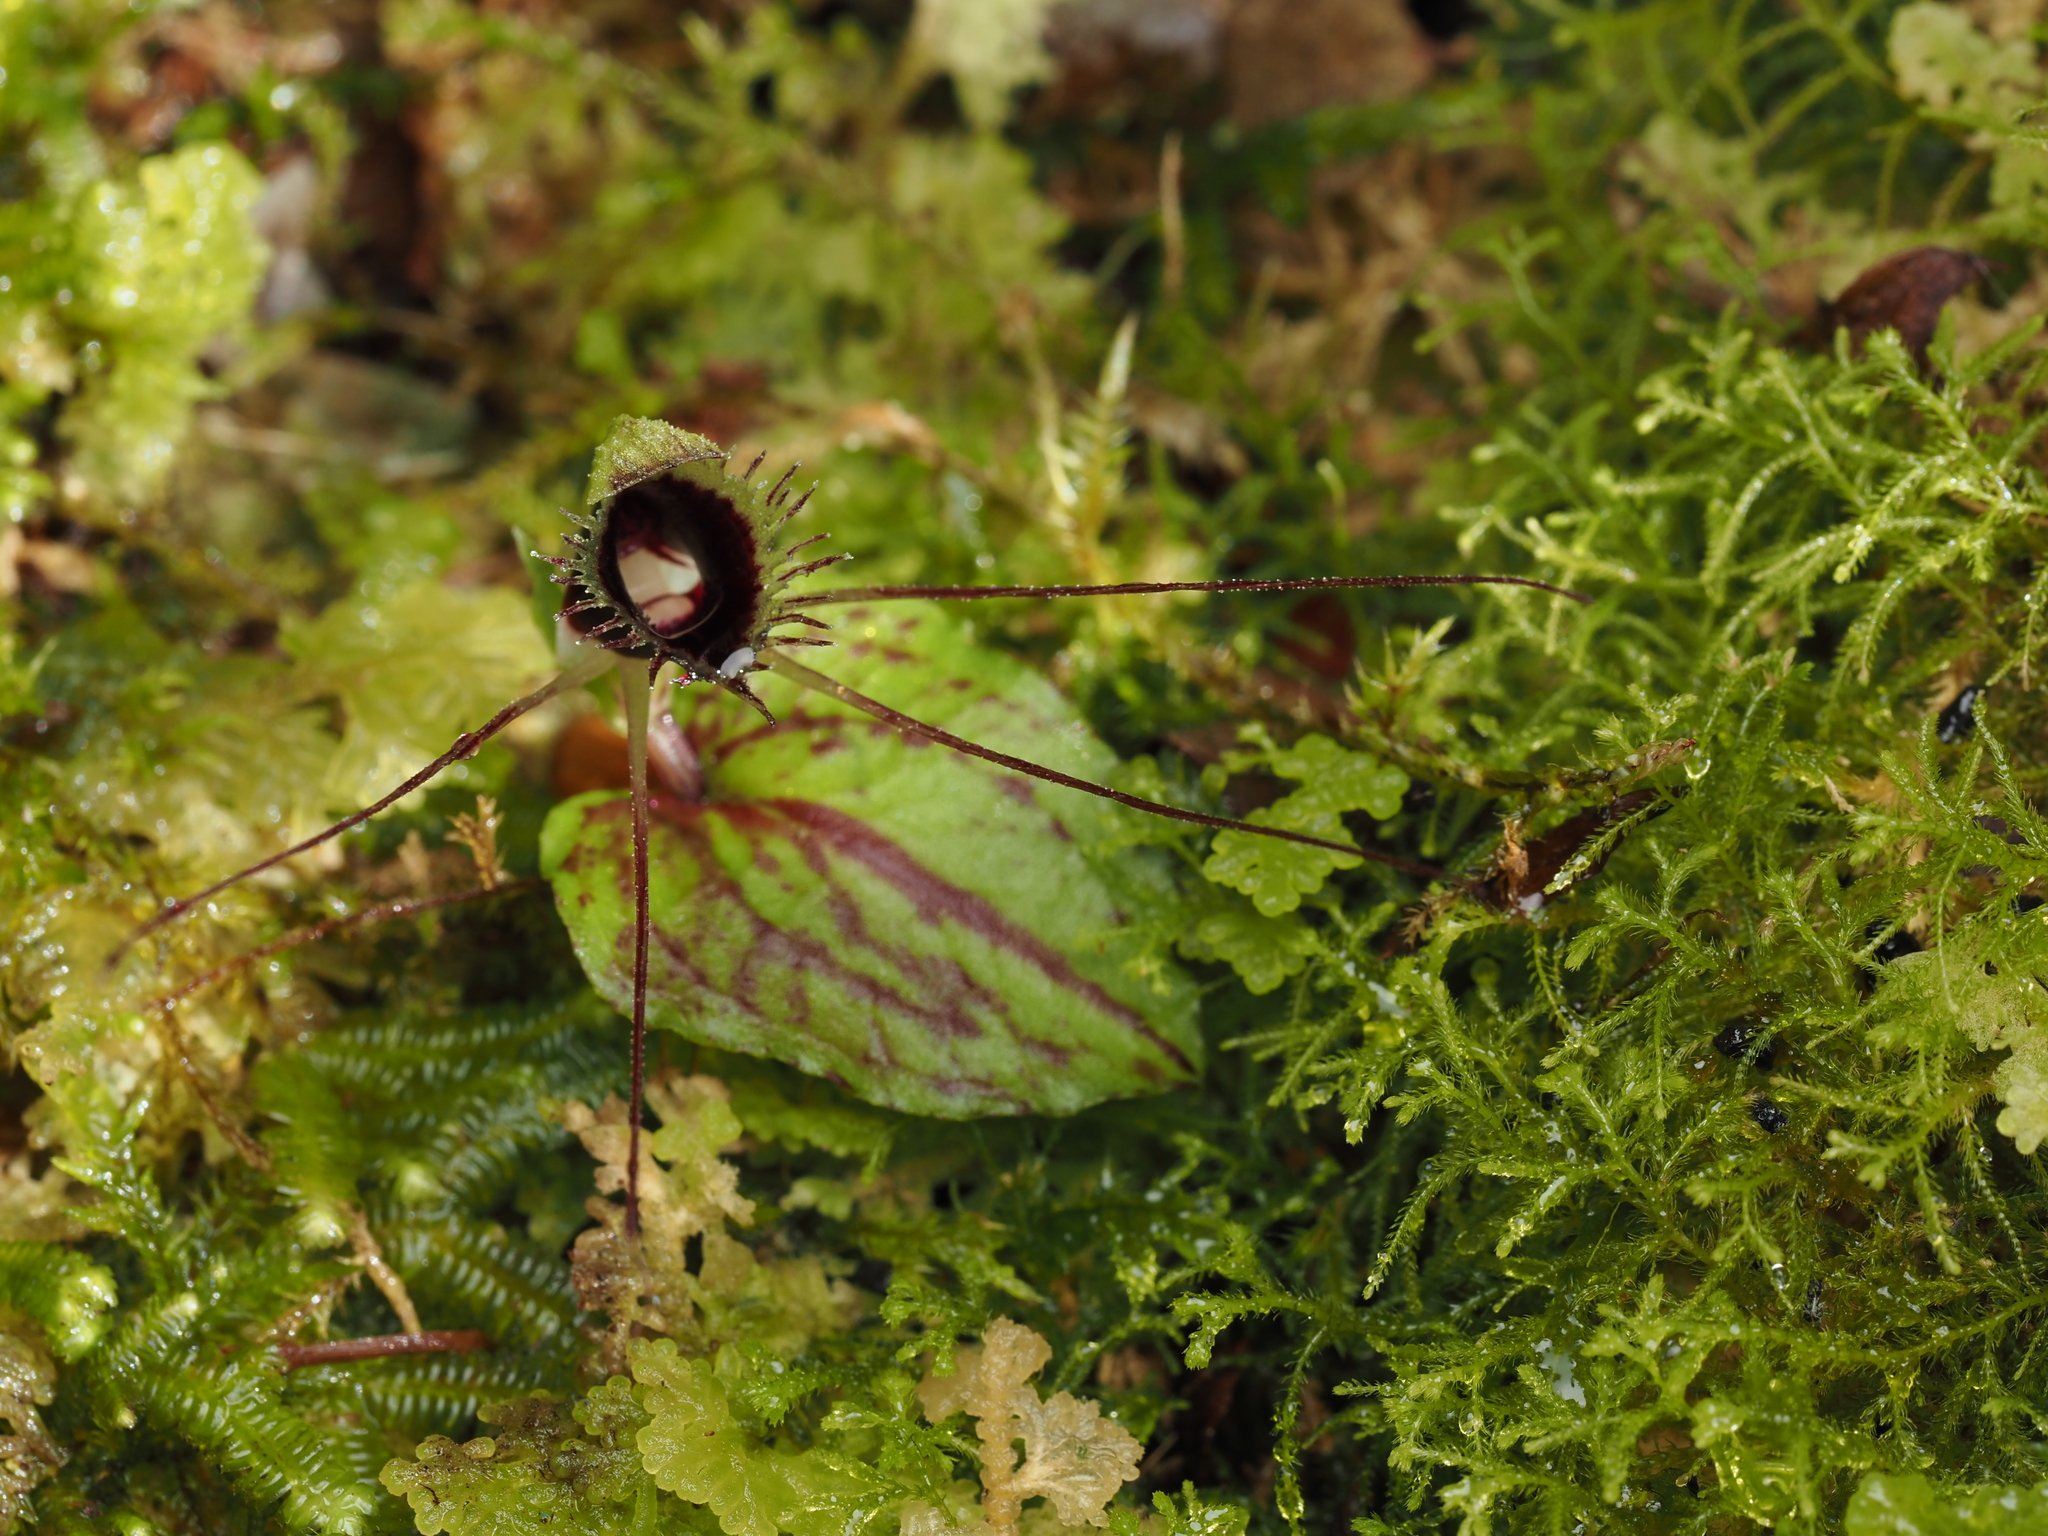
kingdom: Plantae
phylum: Tracheophyta
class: Liliopsida
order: Asparagales
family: Orchidaceae
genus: Corybas
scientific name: Corybas oblongus
